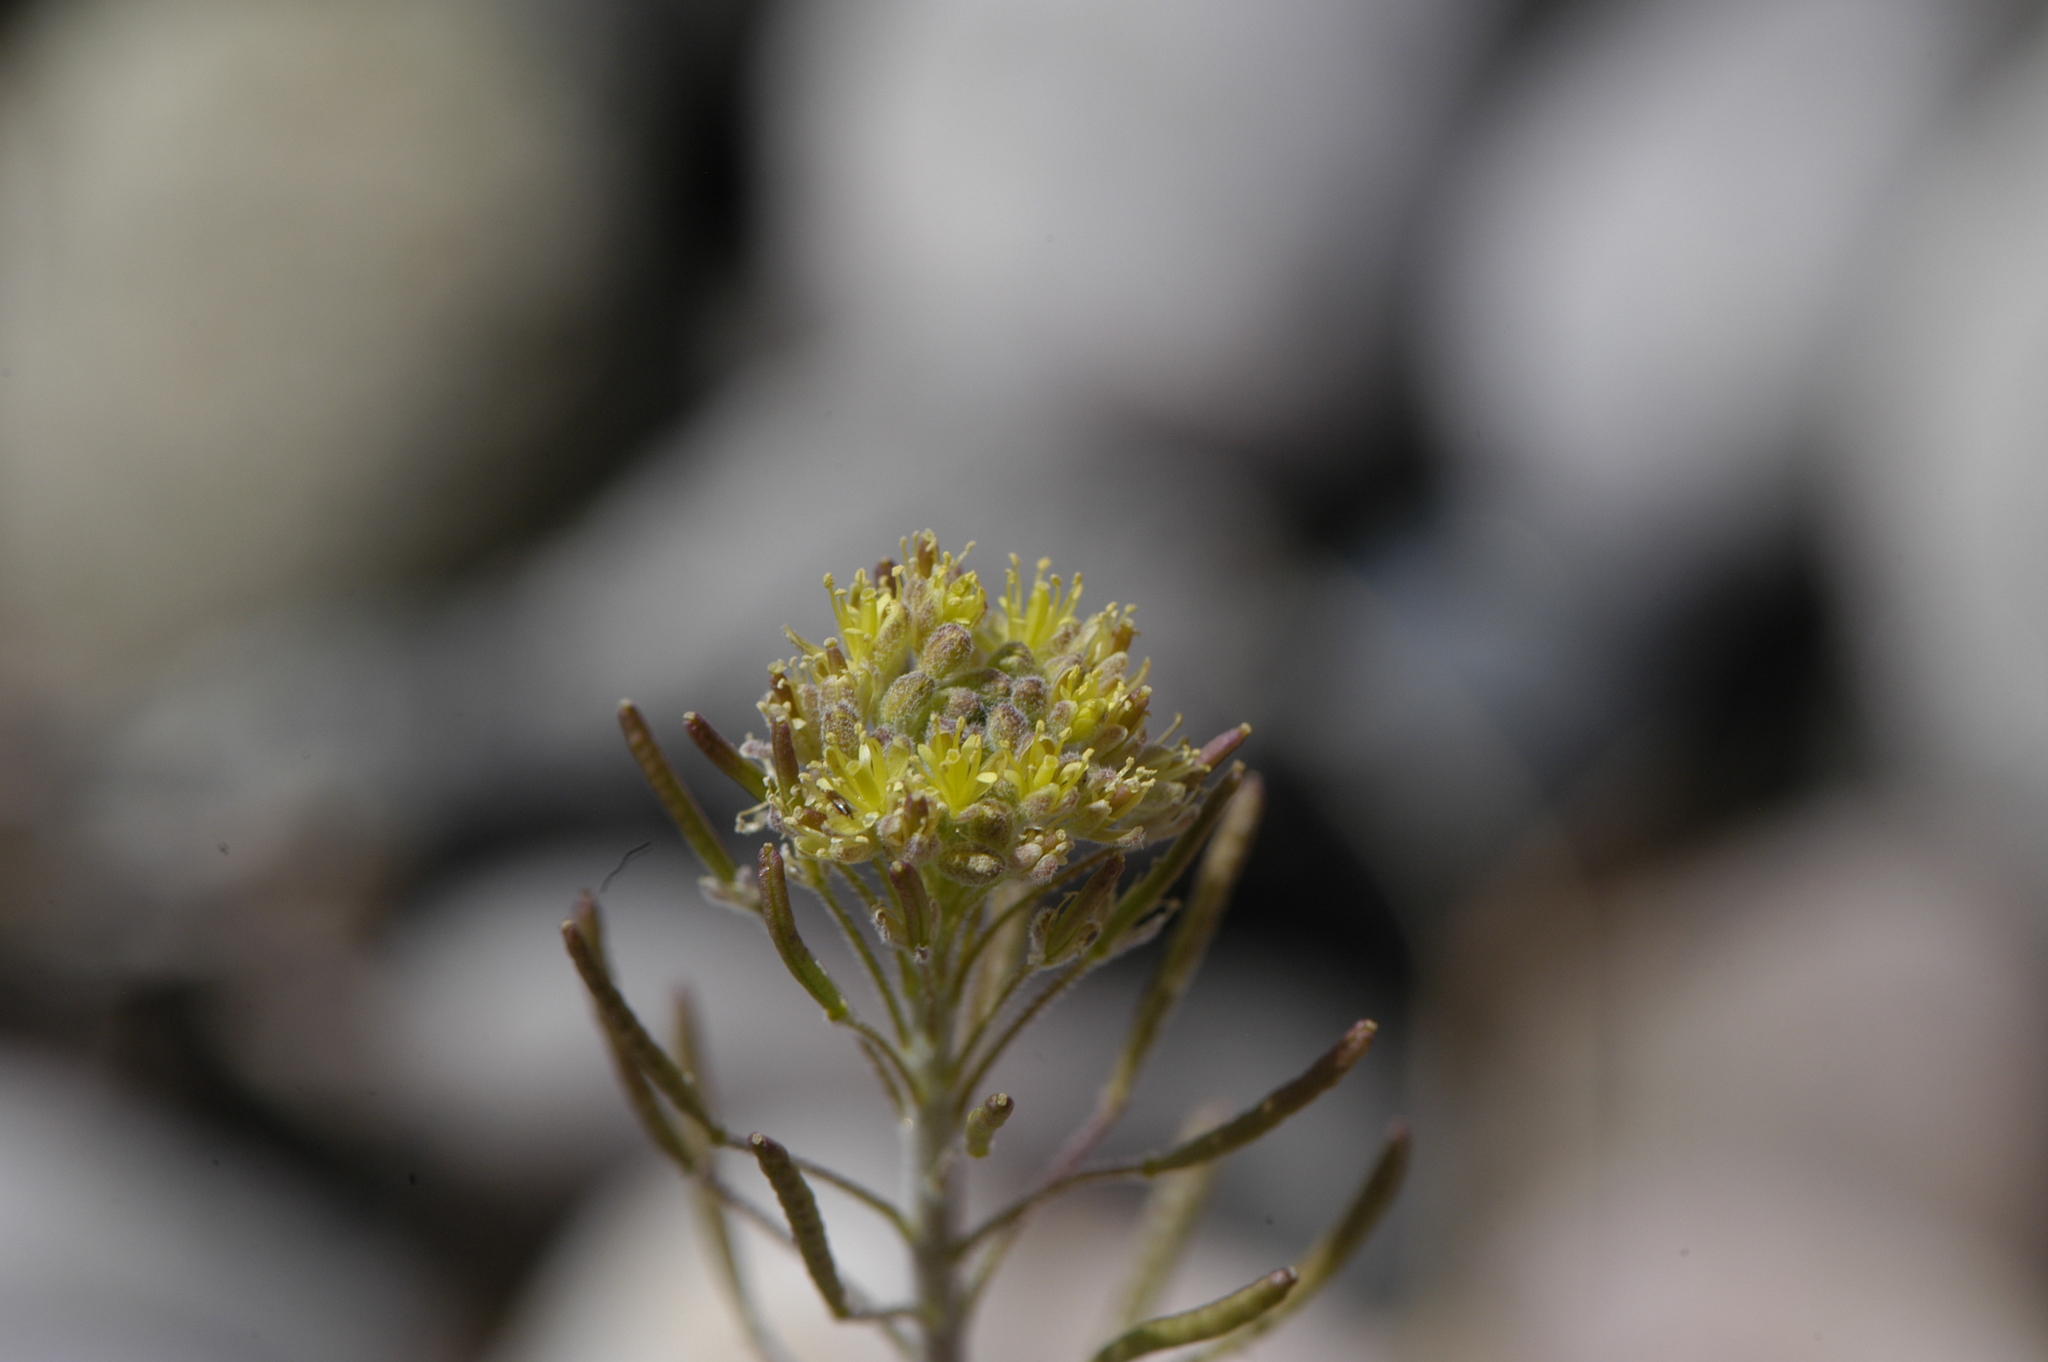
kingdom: Plantae
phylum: Tracheophyta
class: Magnoliopsida
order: Brassicales
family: Brassicaceae
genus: Descurainia
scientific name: Descurainia pinnata
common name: Western tansy mustard
